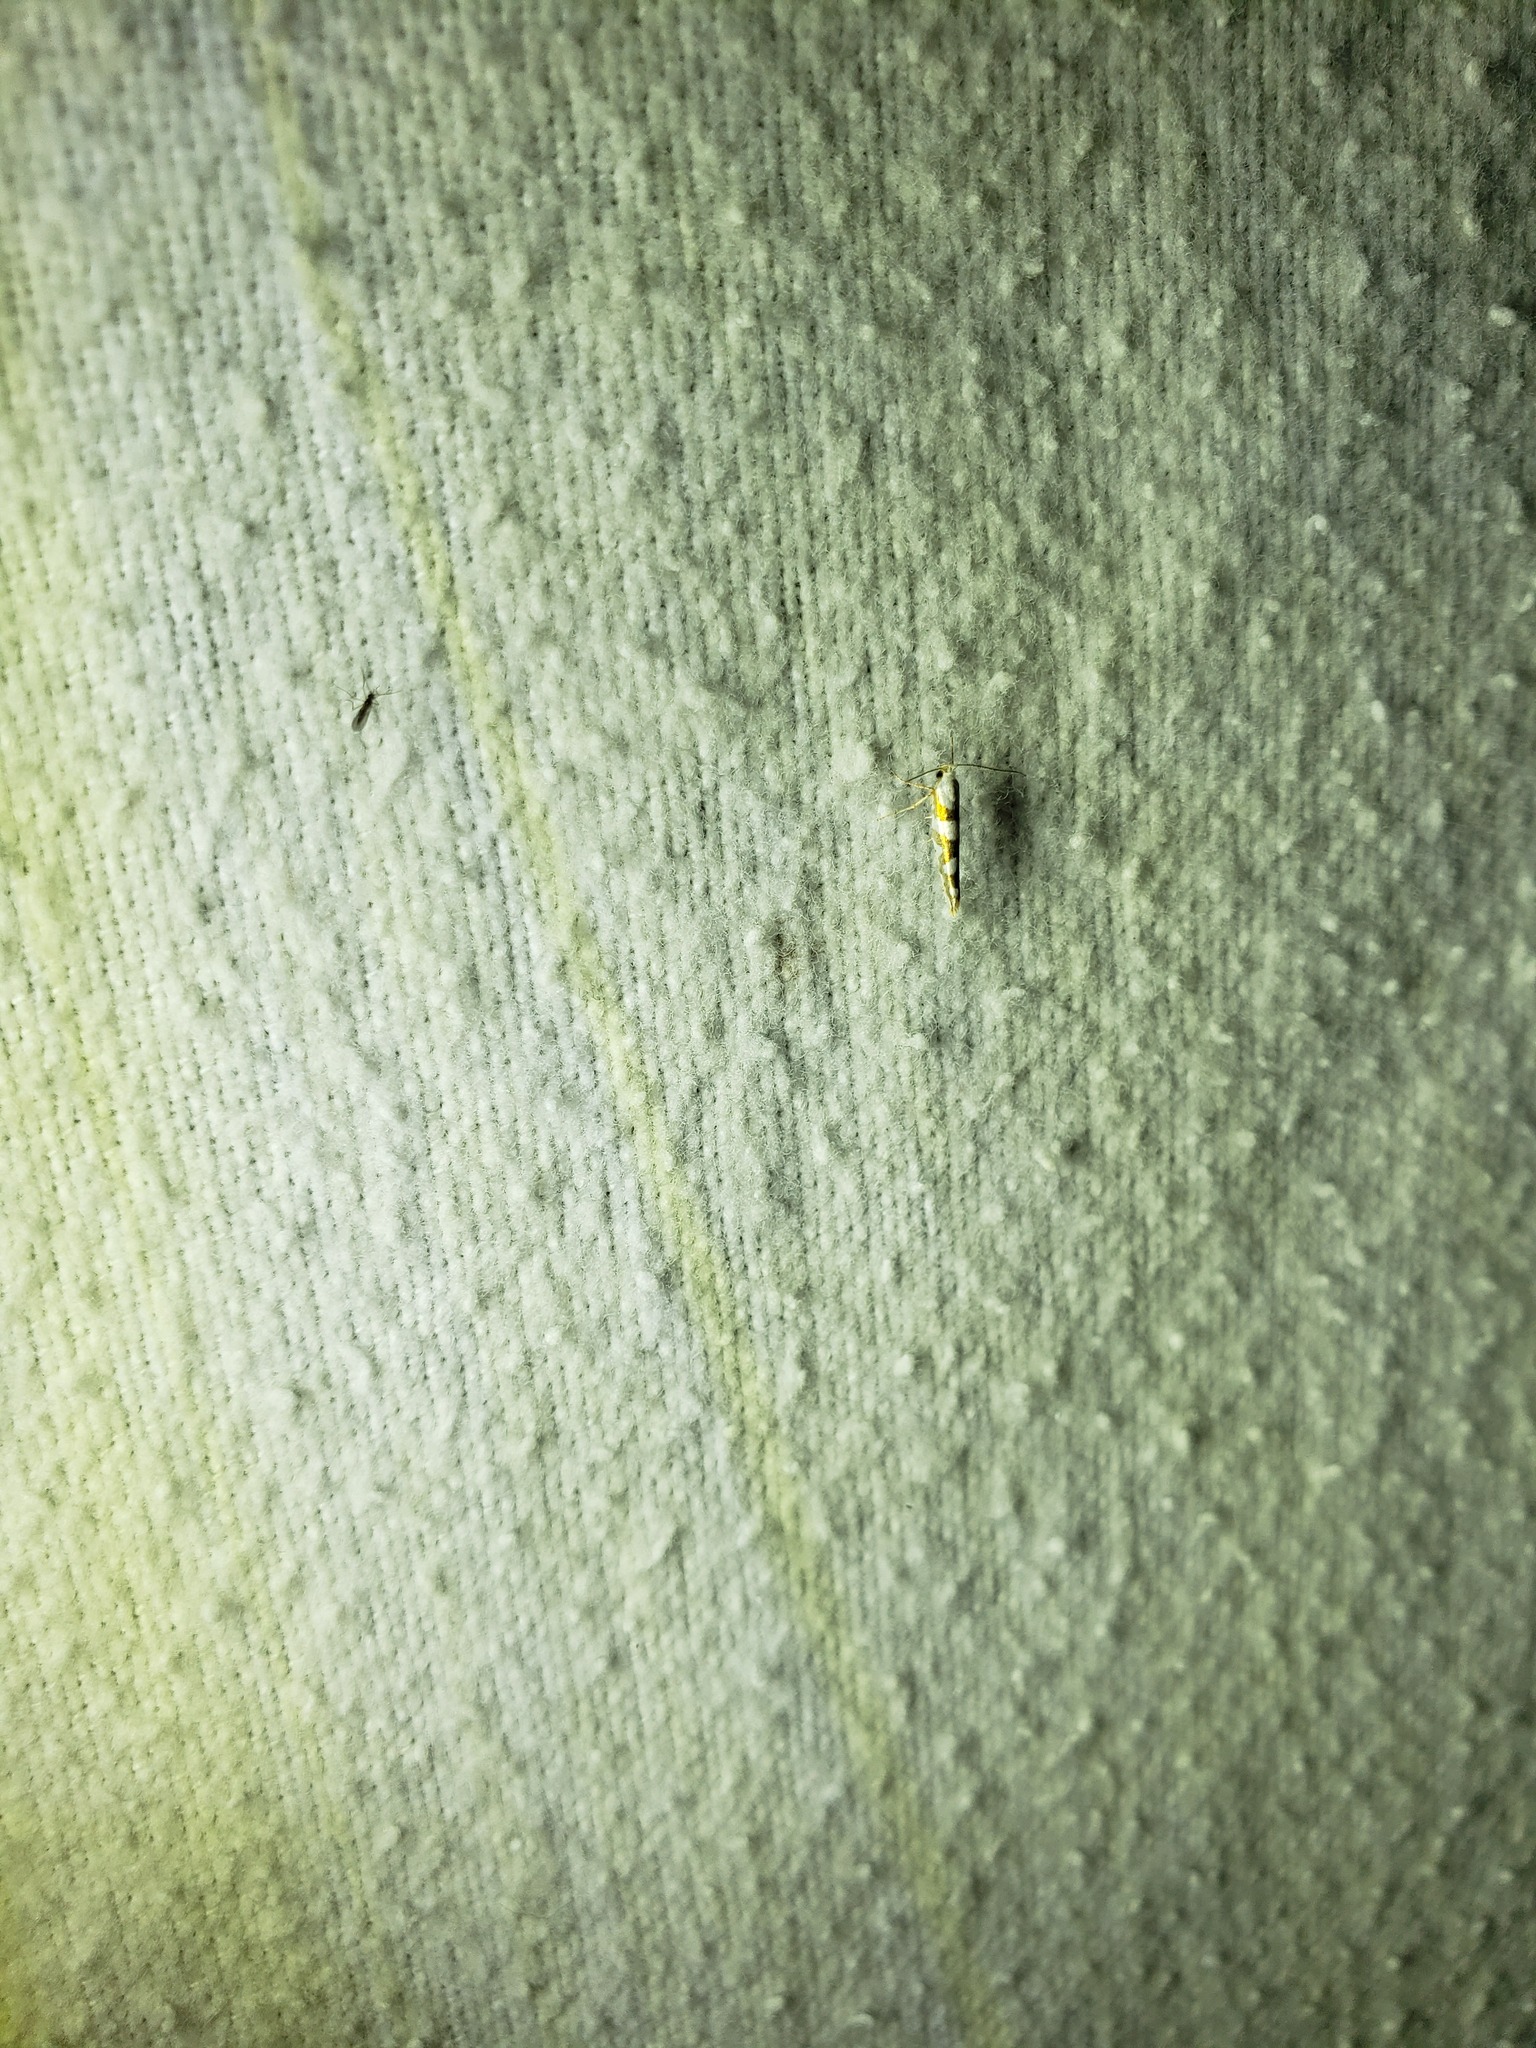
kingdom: Animalia
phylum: Arthropoda
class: Insecta
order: Lepidoptera
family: Argyresthiidae
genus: Argyresthia
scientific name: Argyresthia calliphanes
